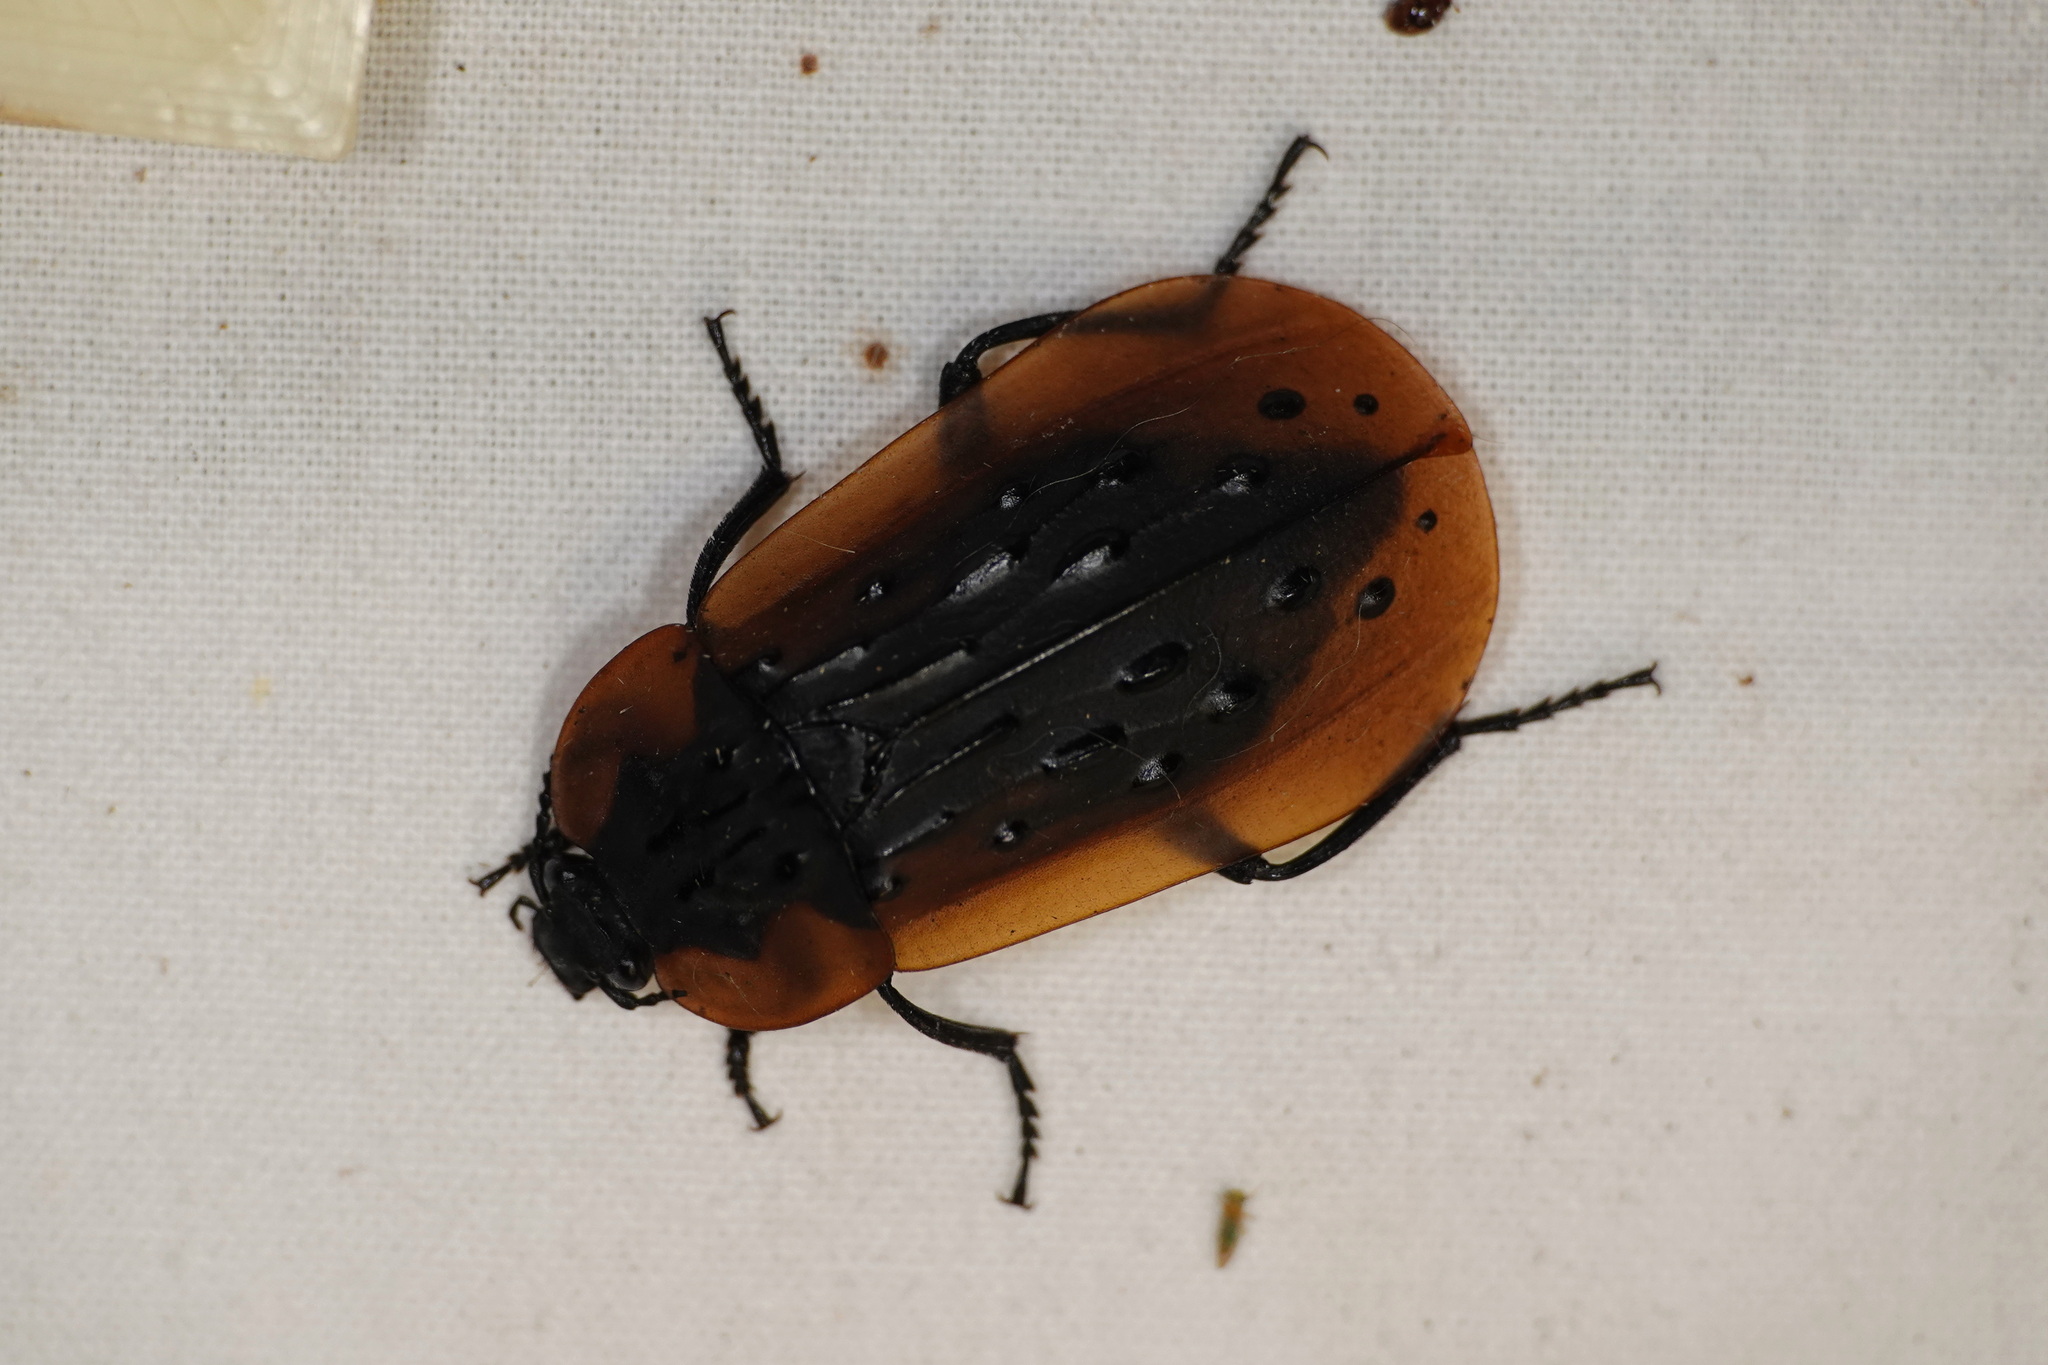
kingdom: Animalia
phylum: Arthropoda
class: Insecta
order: Coleoptera
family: Staphylinidae
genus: Ptomaphila
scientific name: Ptomaphila lacrymosa
